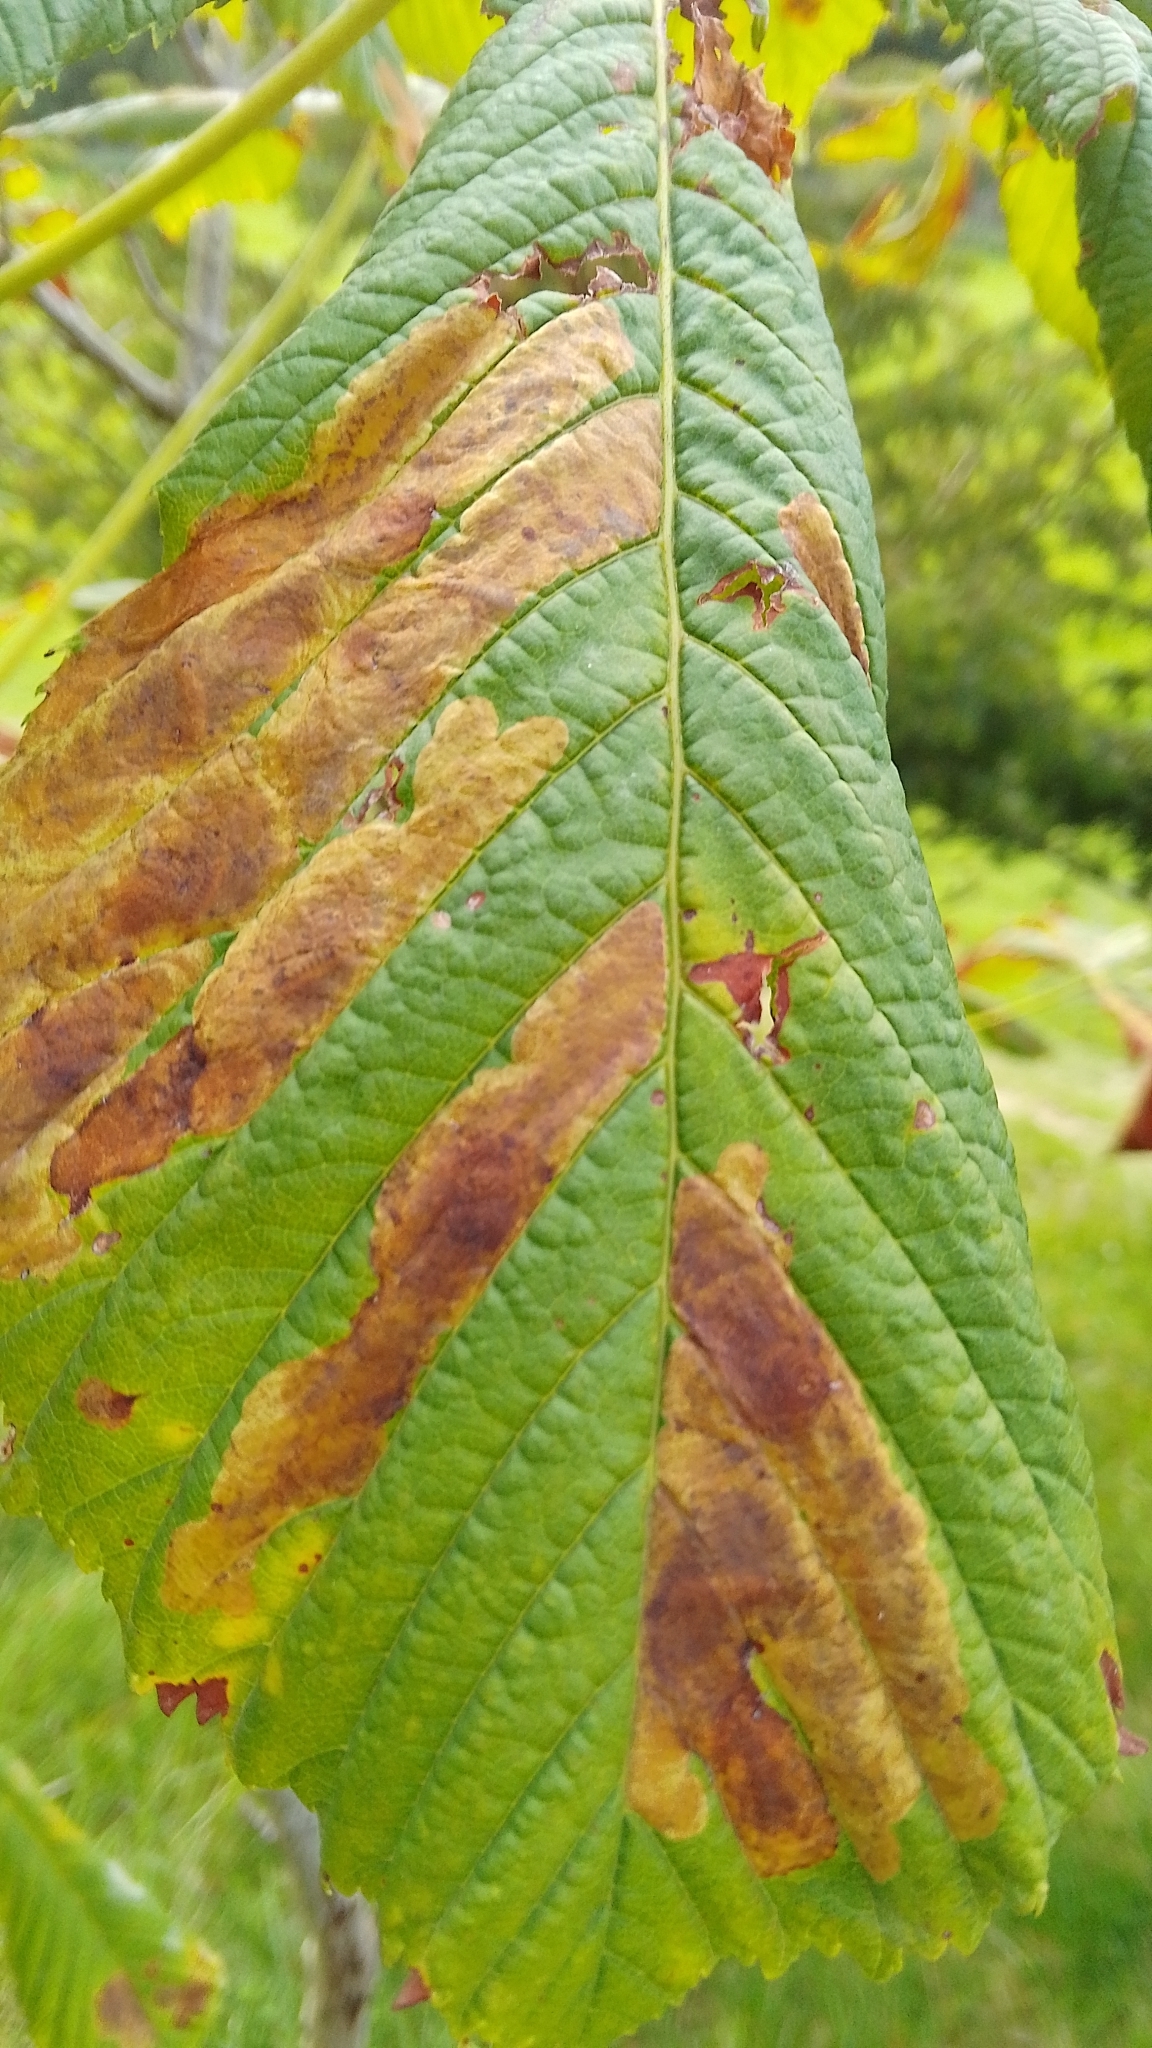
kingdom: Animalia
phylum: Arthropoda
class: Insecta
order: Lepidoptera
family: Gracillariidae
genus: Cameraria
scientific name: Cameraria ohridella
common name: Horse-chestnut leaf-miner
